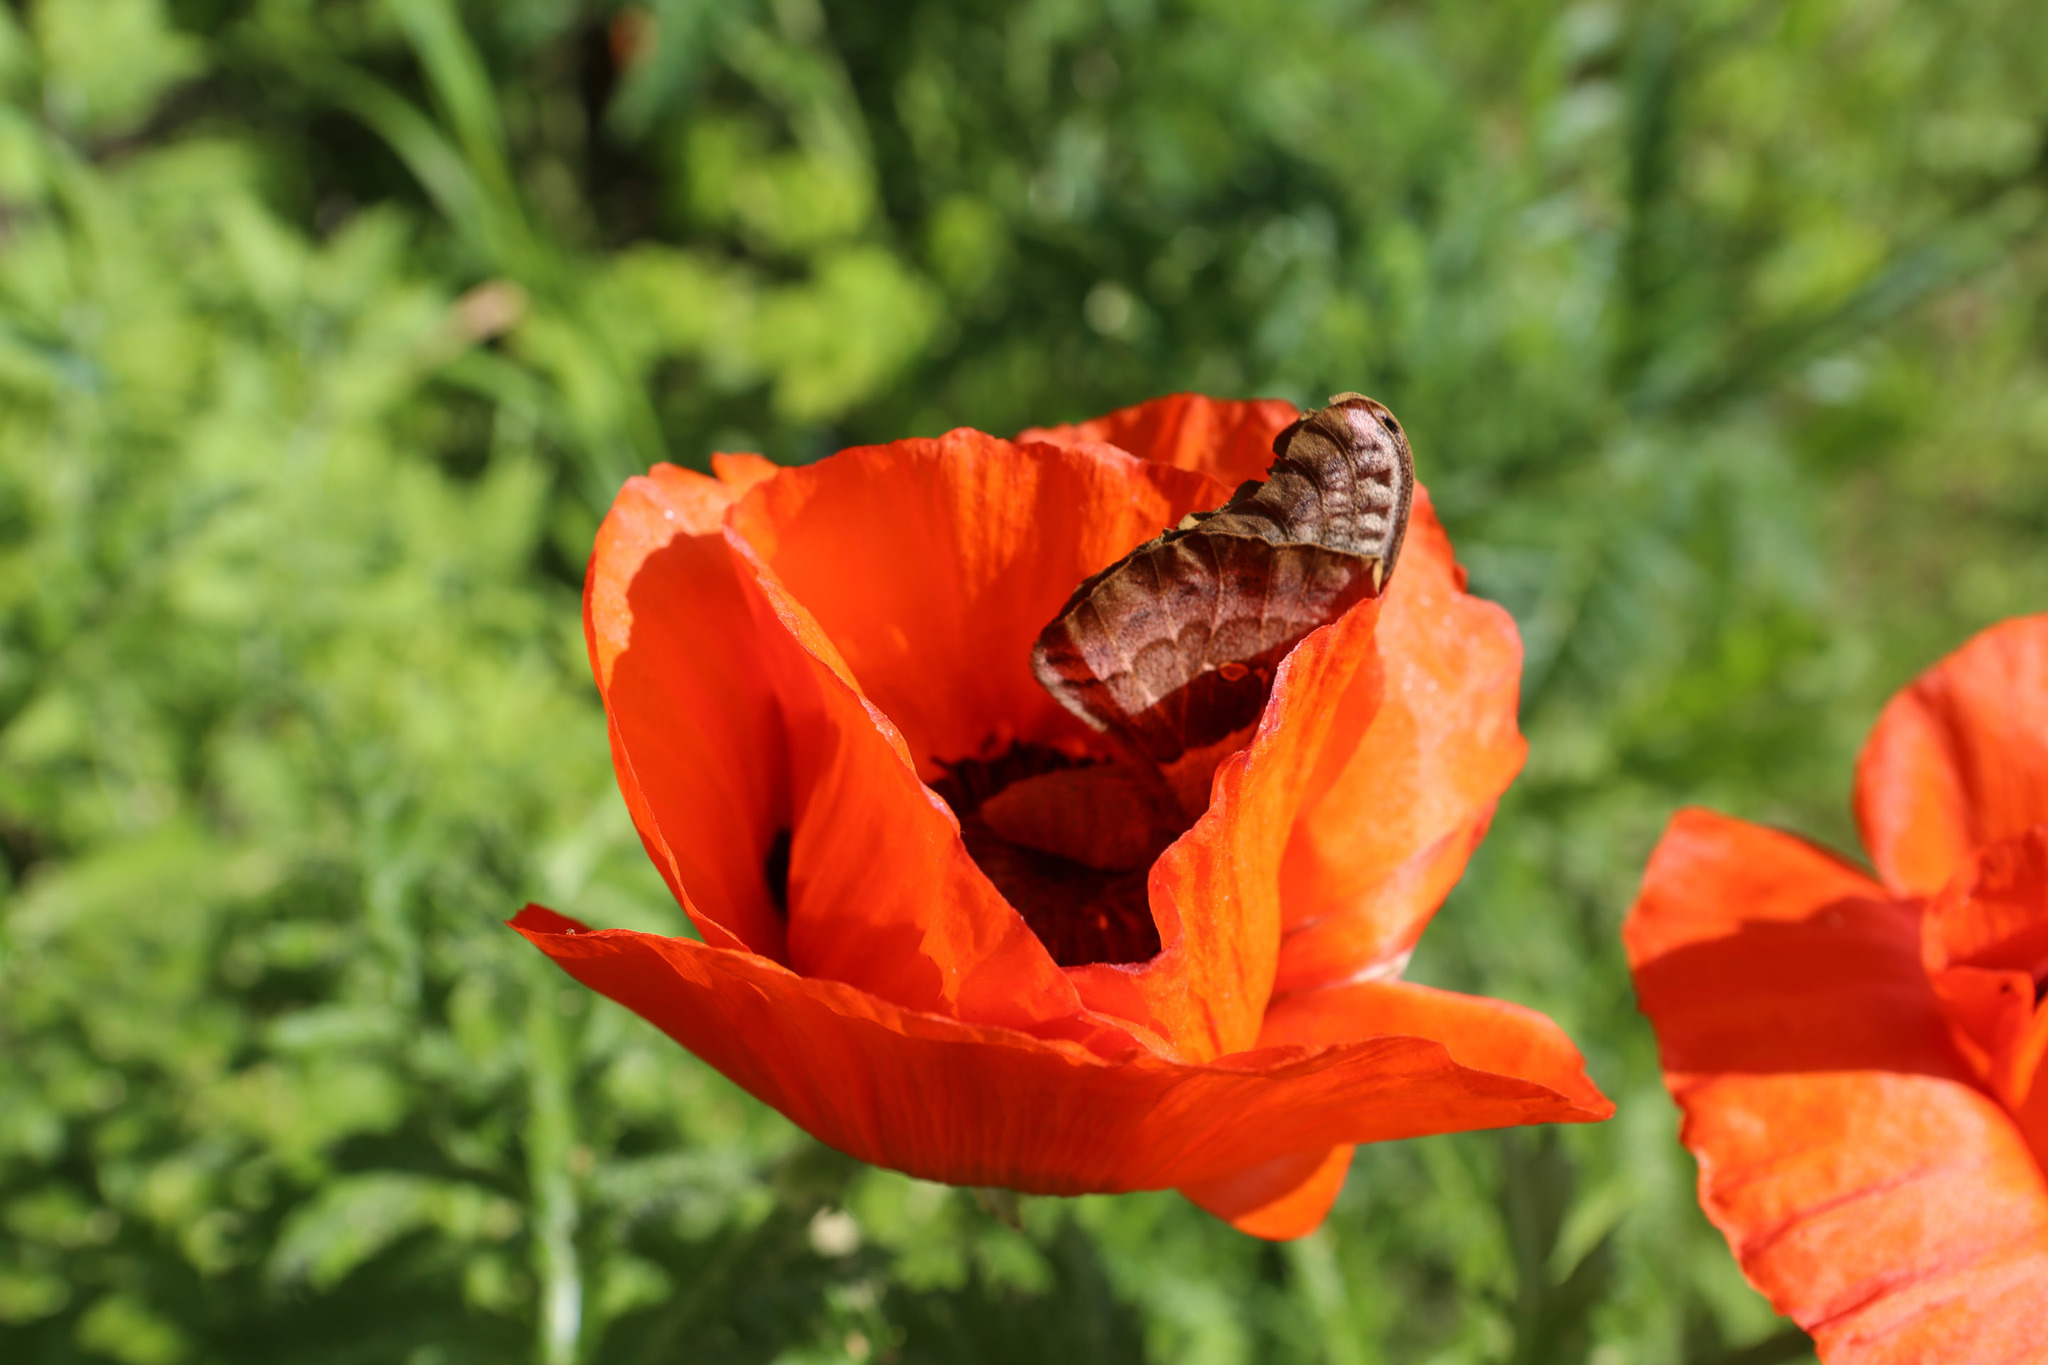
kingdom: Animalia
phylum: Arthropoda
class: Insecta
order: Lepidoptera
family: Saturniidae
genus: Antheraea
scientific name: Antheraea polyphemus
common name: Polyphemus moth
